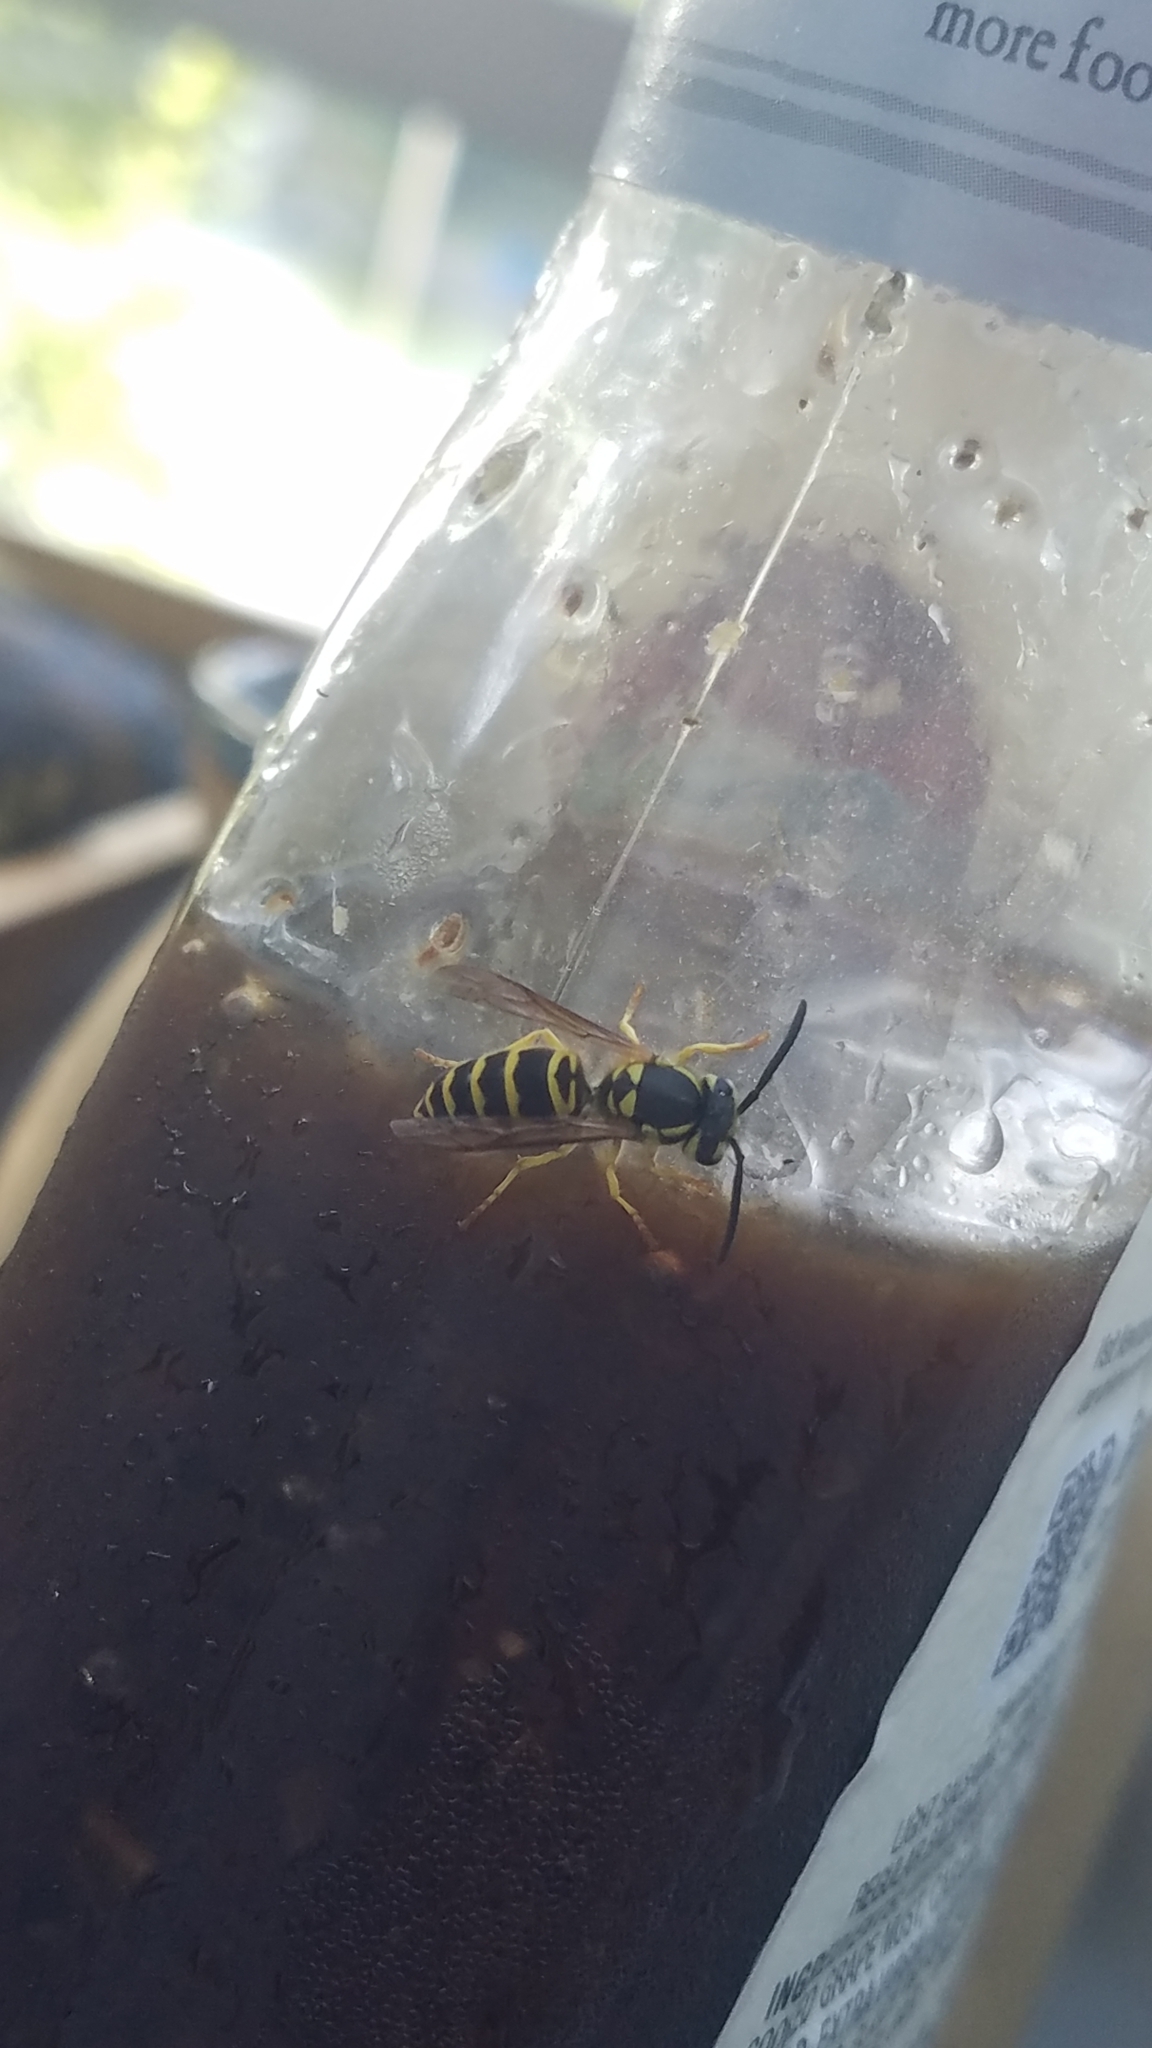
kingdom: Animalia
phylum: Arthropoda
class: Insecta
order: Hymenoptera
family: Vespidae
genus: Vespula
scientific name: Vespula maculifrons
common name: Eastern yellowjacket
